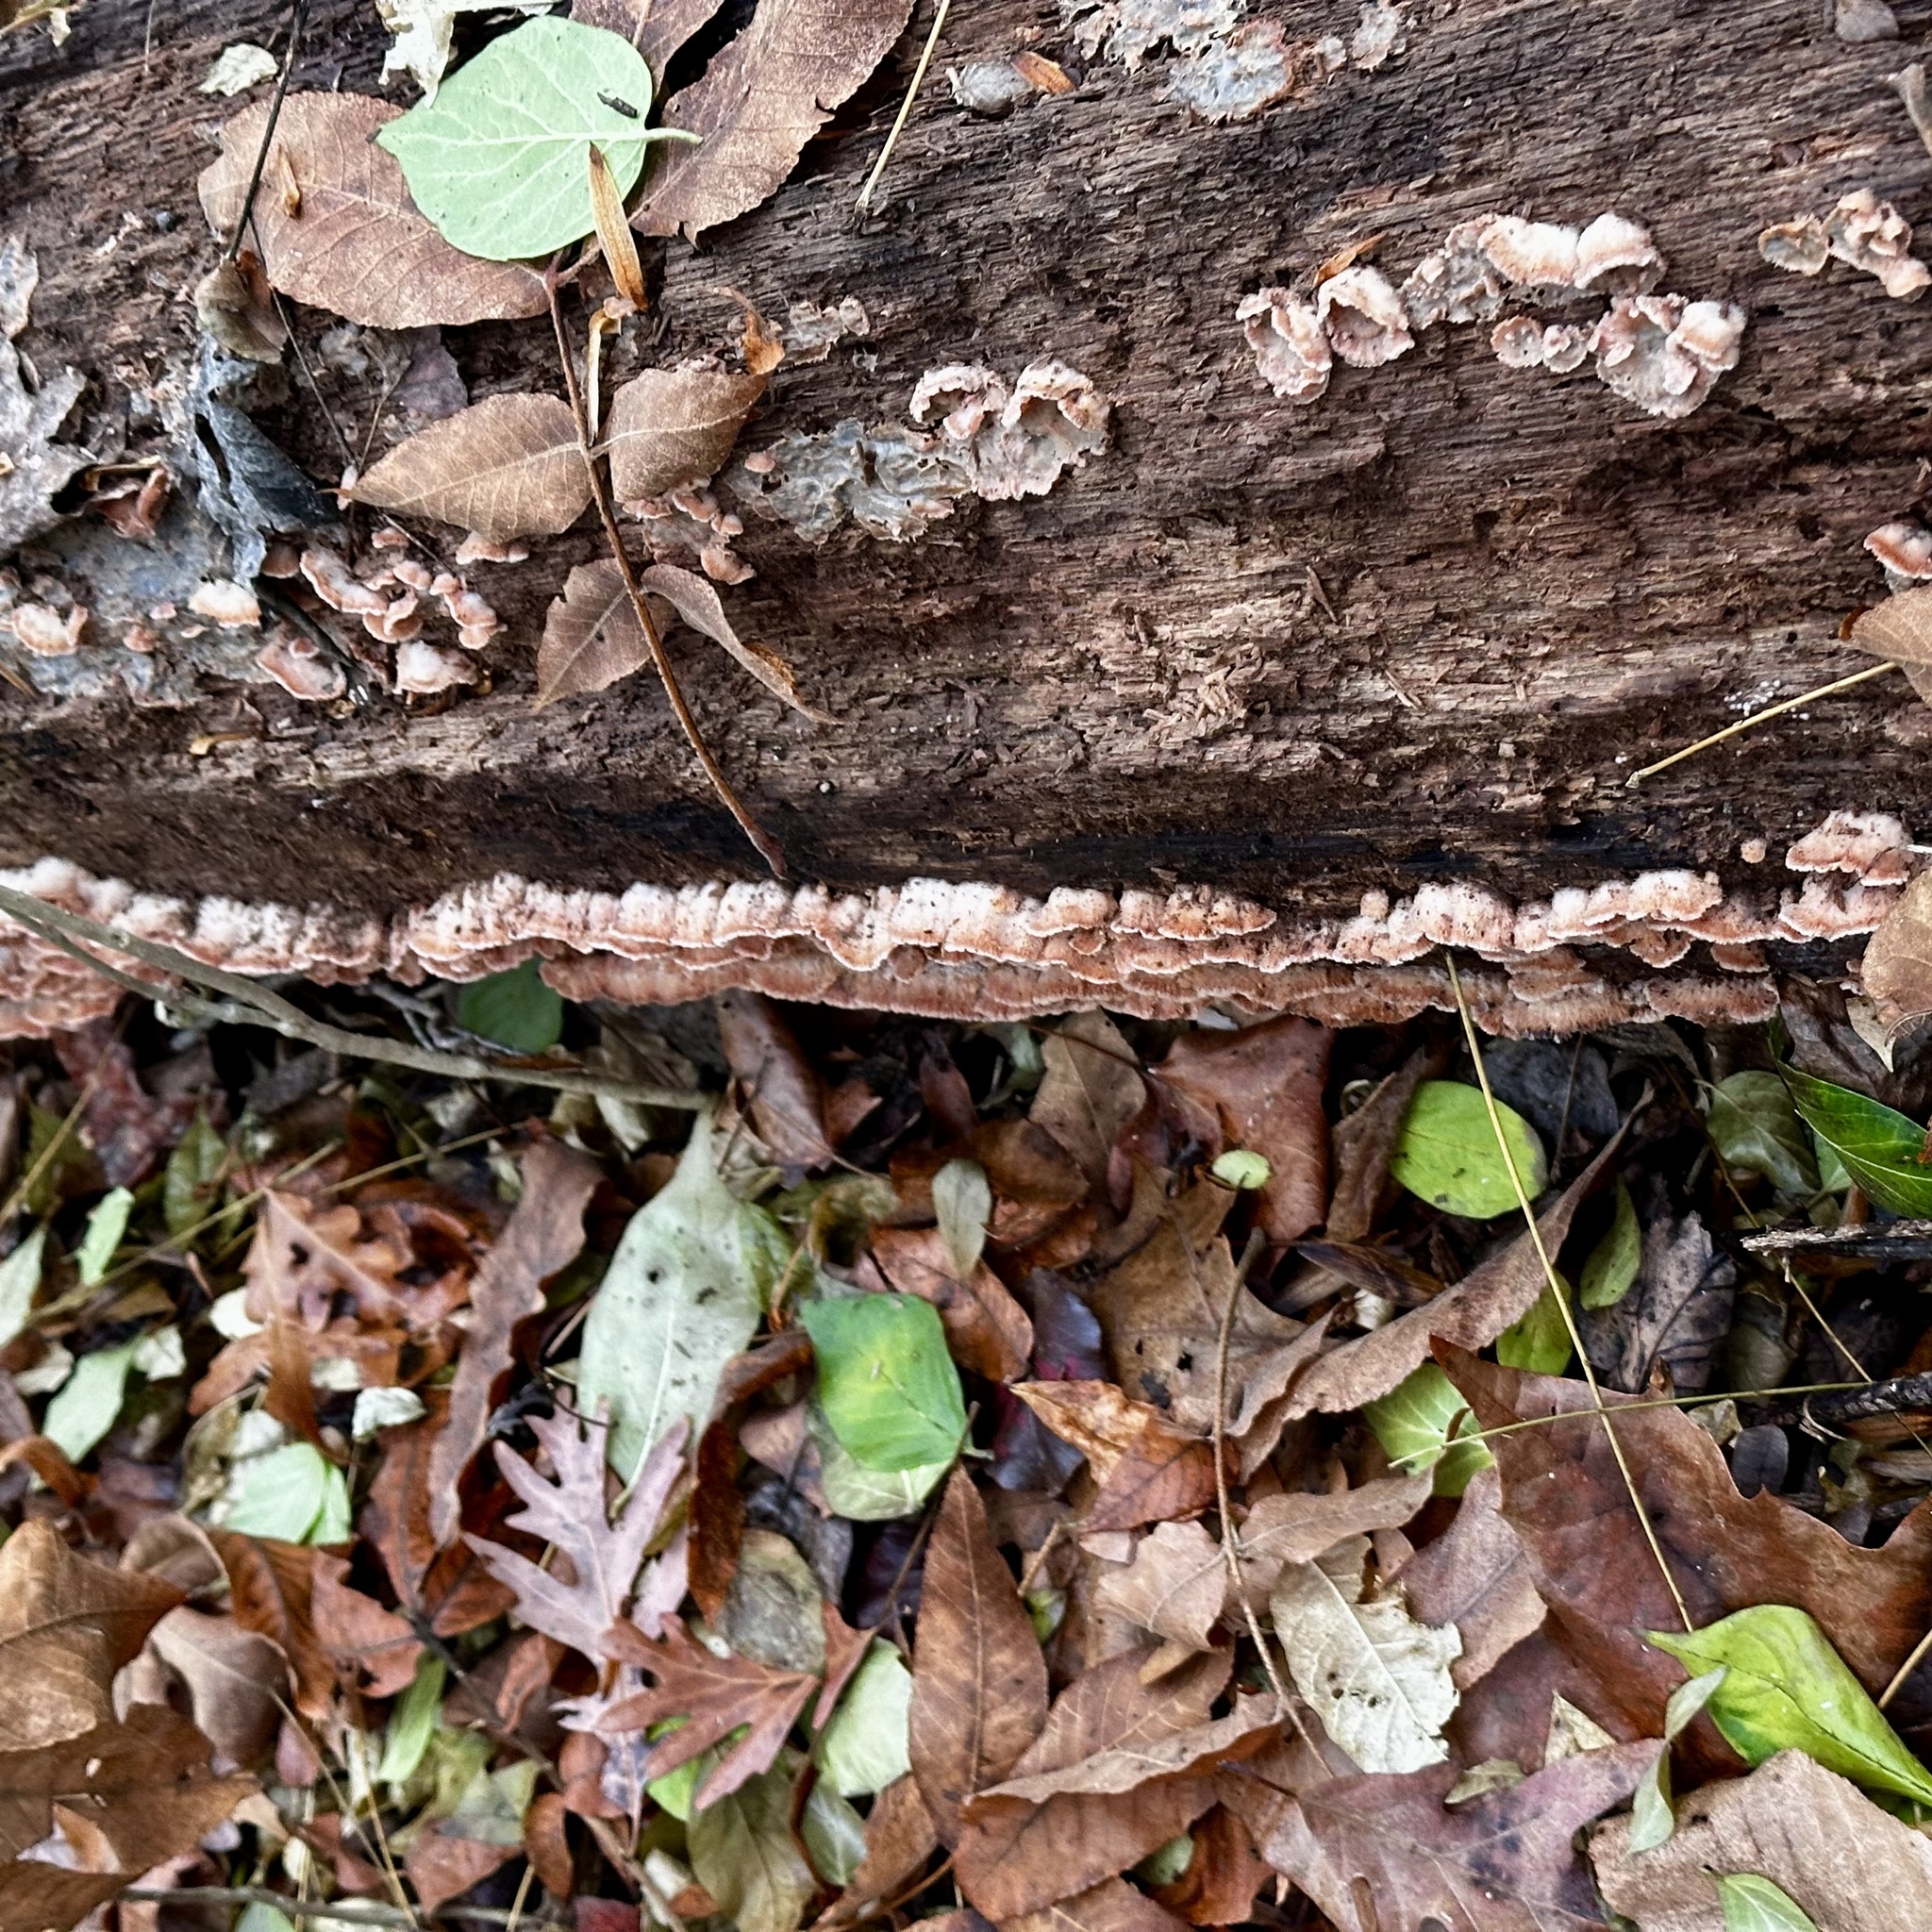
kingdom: Fungi
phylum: Basidiomycota
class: Agaricomycetes
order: Polyporales
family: Meruliaceae
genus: Phlebia
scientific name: Phlebia tremellosa
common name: Jelly rot
